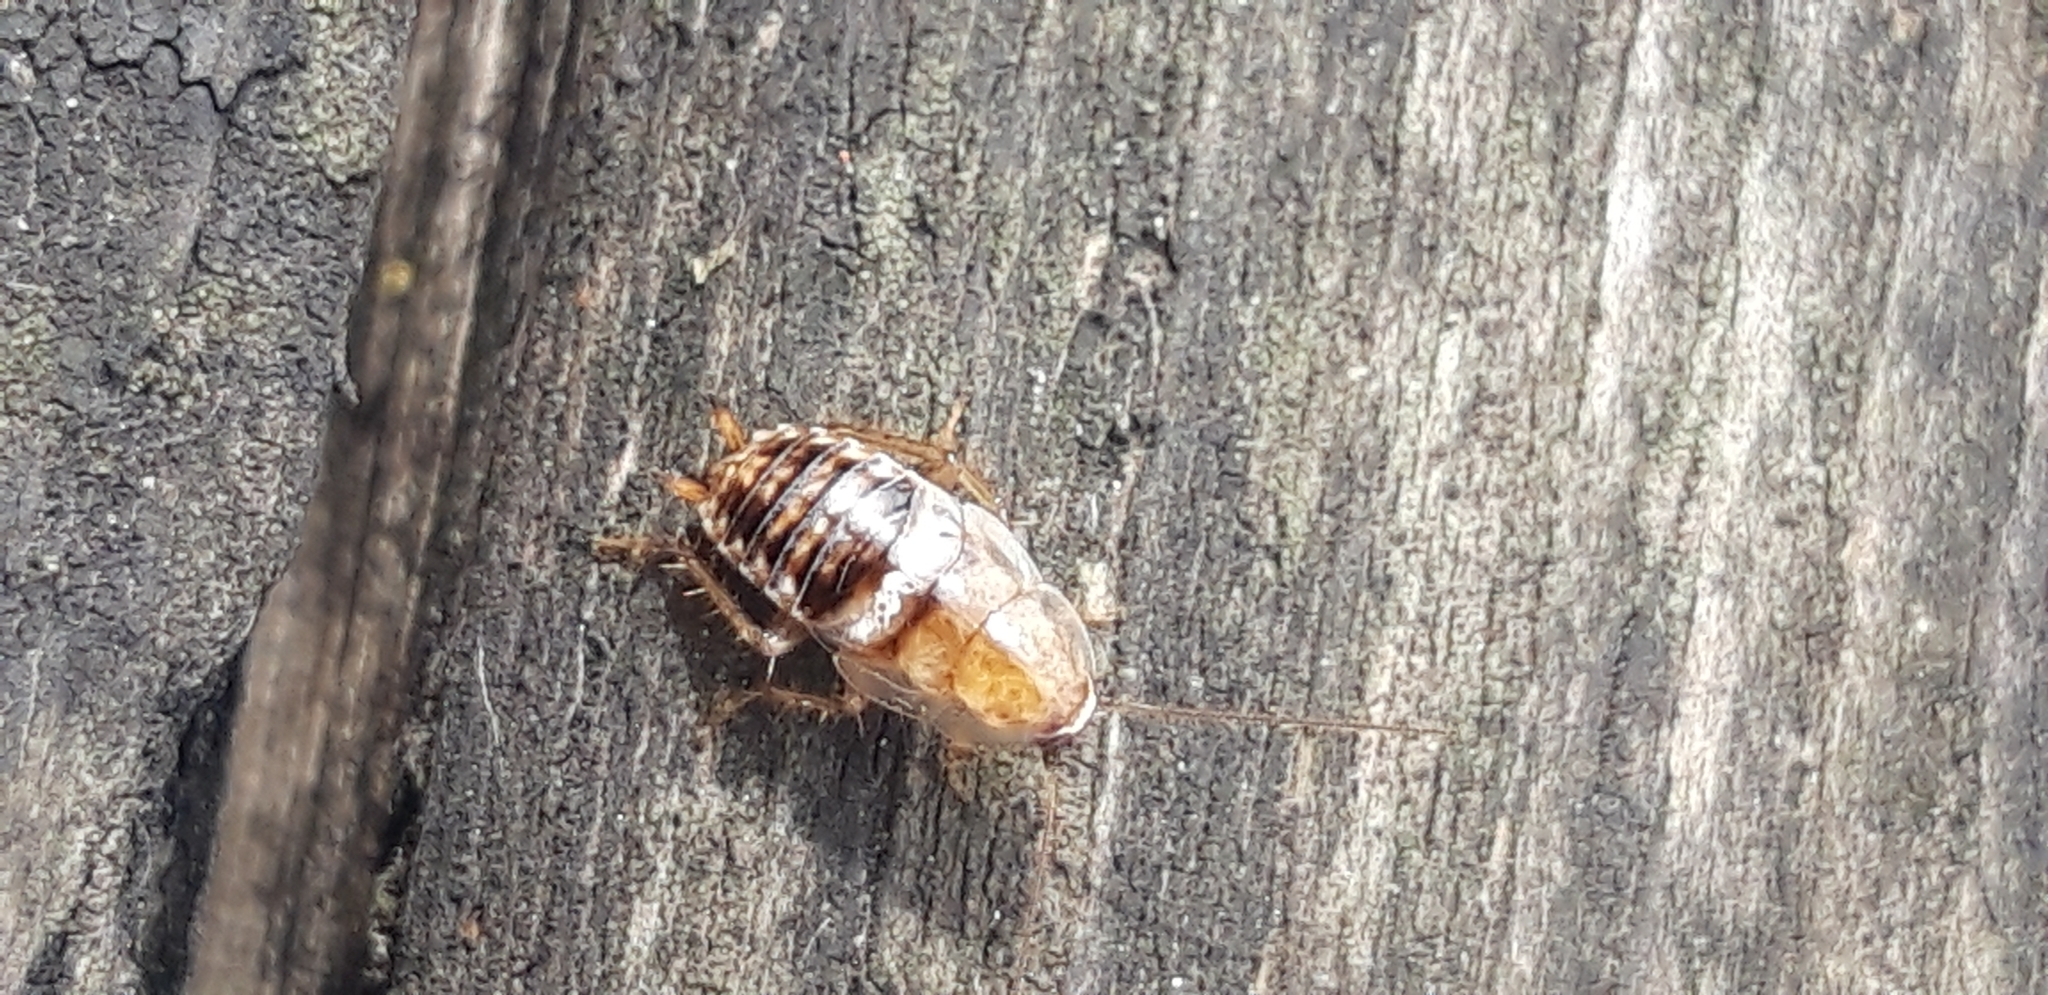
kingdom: Animalia
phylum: Arthropoda
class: Insecta
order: Blattodea
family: Ectobiidae
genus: Planuncus
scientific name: Planuncus
